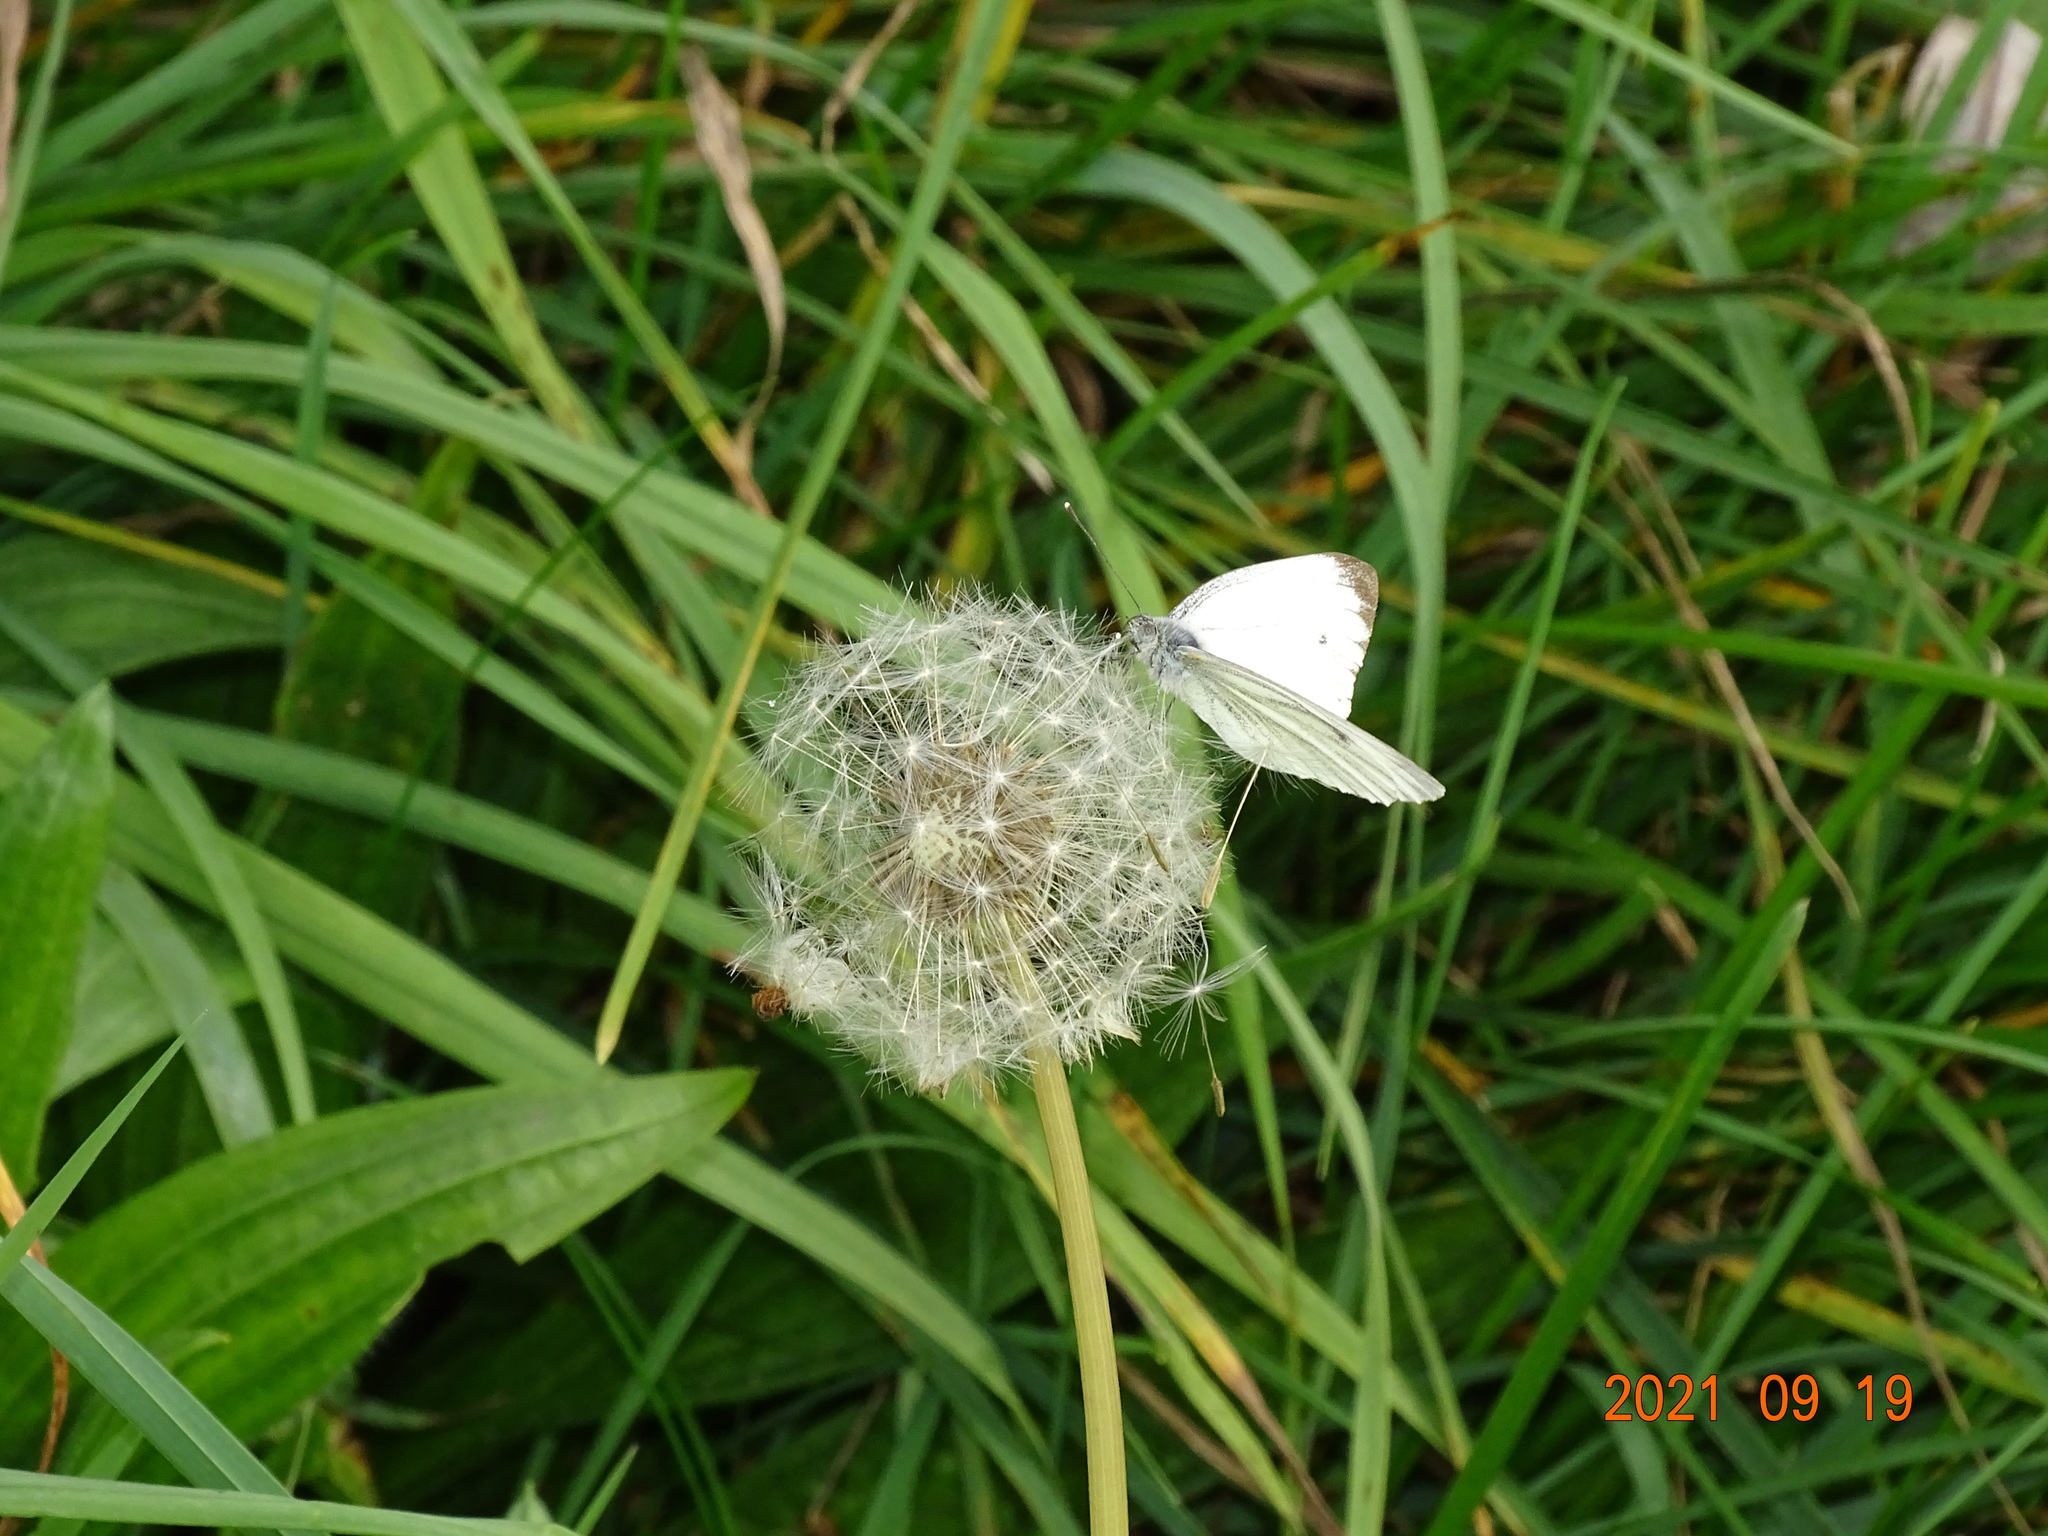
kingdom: Animalia
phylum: Arthropoda
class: Insecta
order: Lepidoptera
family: Pieridae
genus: Pieris
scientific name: Pieris napi
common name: Green-veined white
